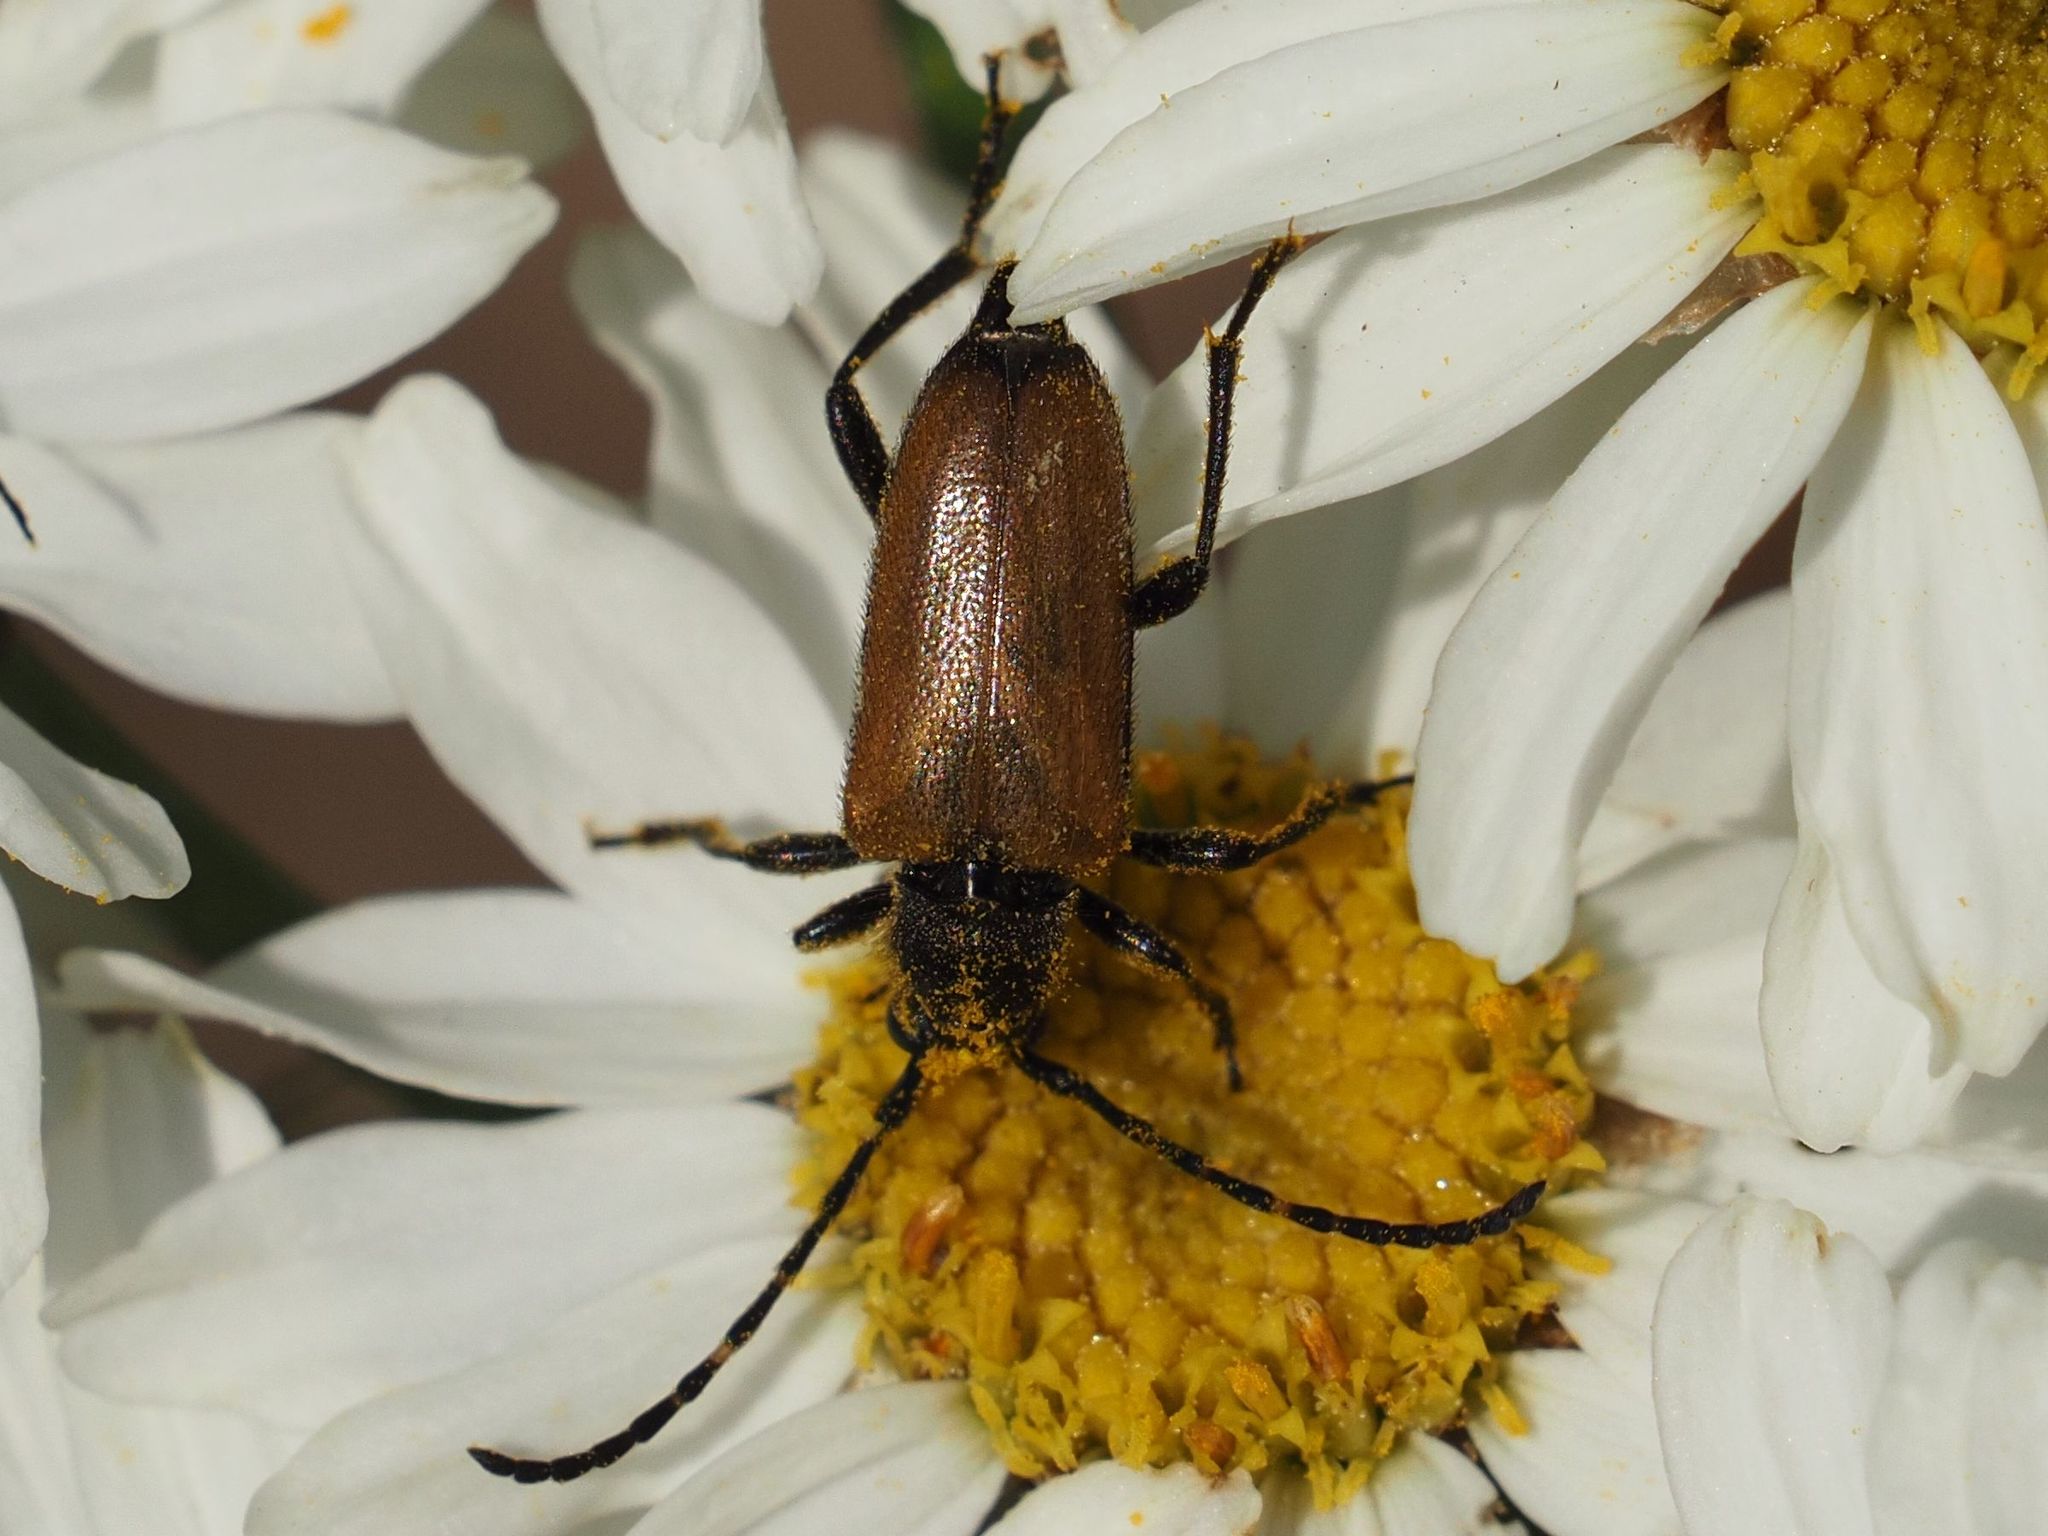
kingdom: Animalia
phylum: Arthropoda
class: Insecta
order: Coleoptera
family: Cerambycidae
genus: Paracorymbia
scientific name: Paracorymbia maculicornis
